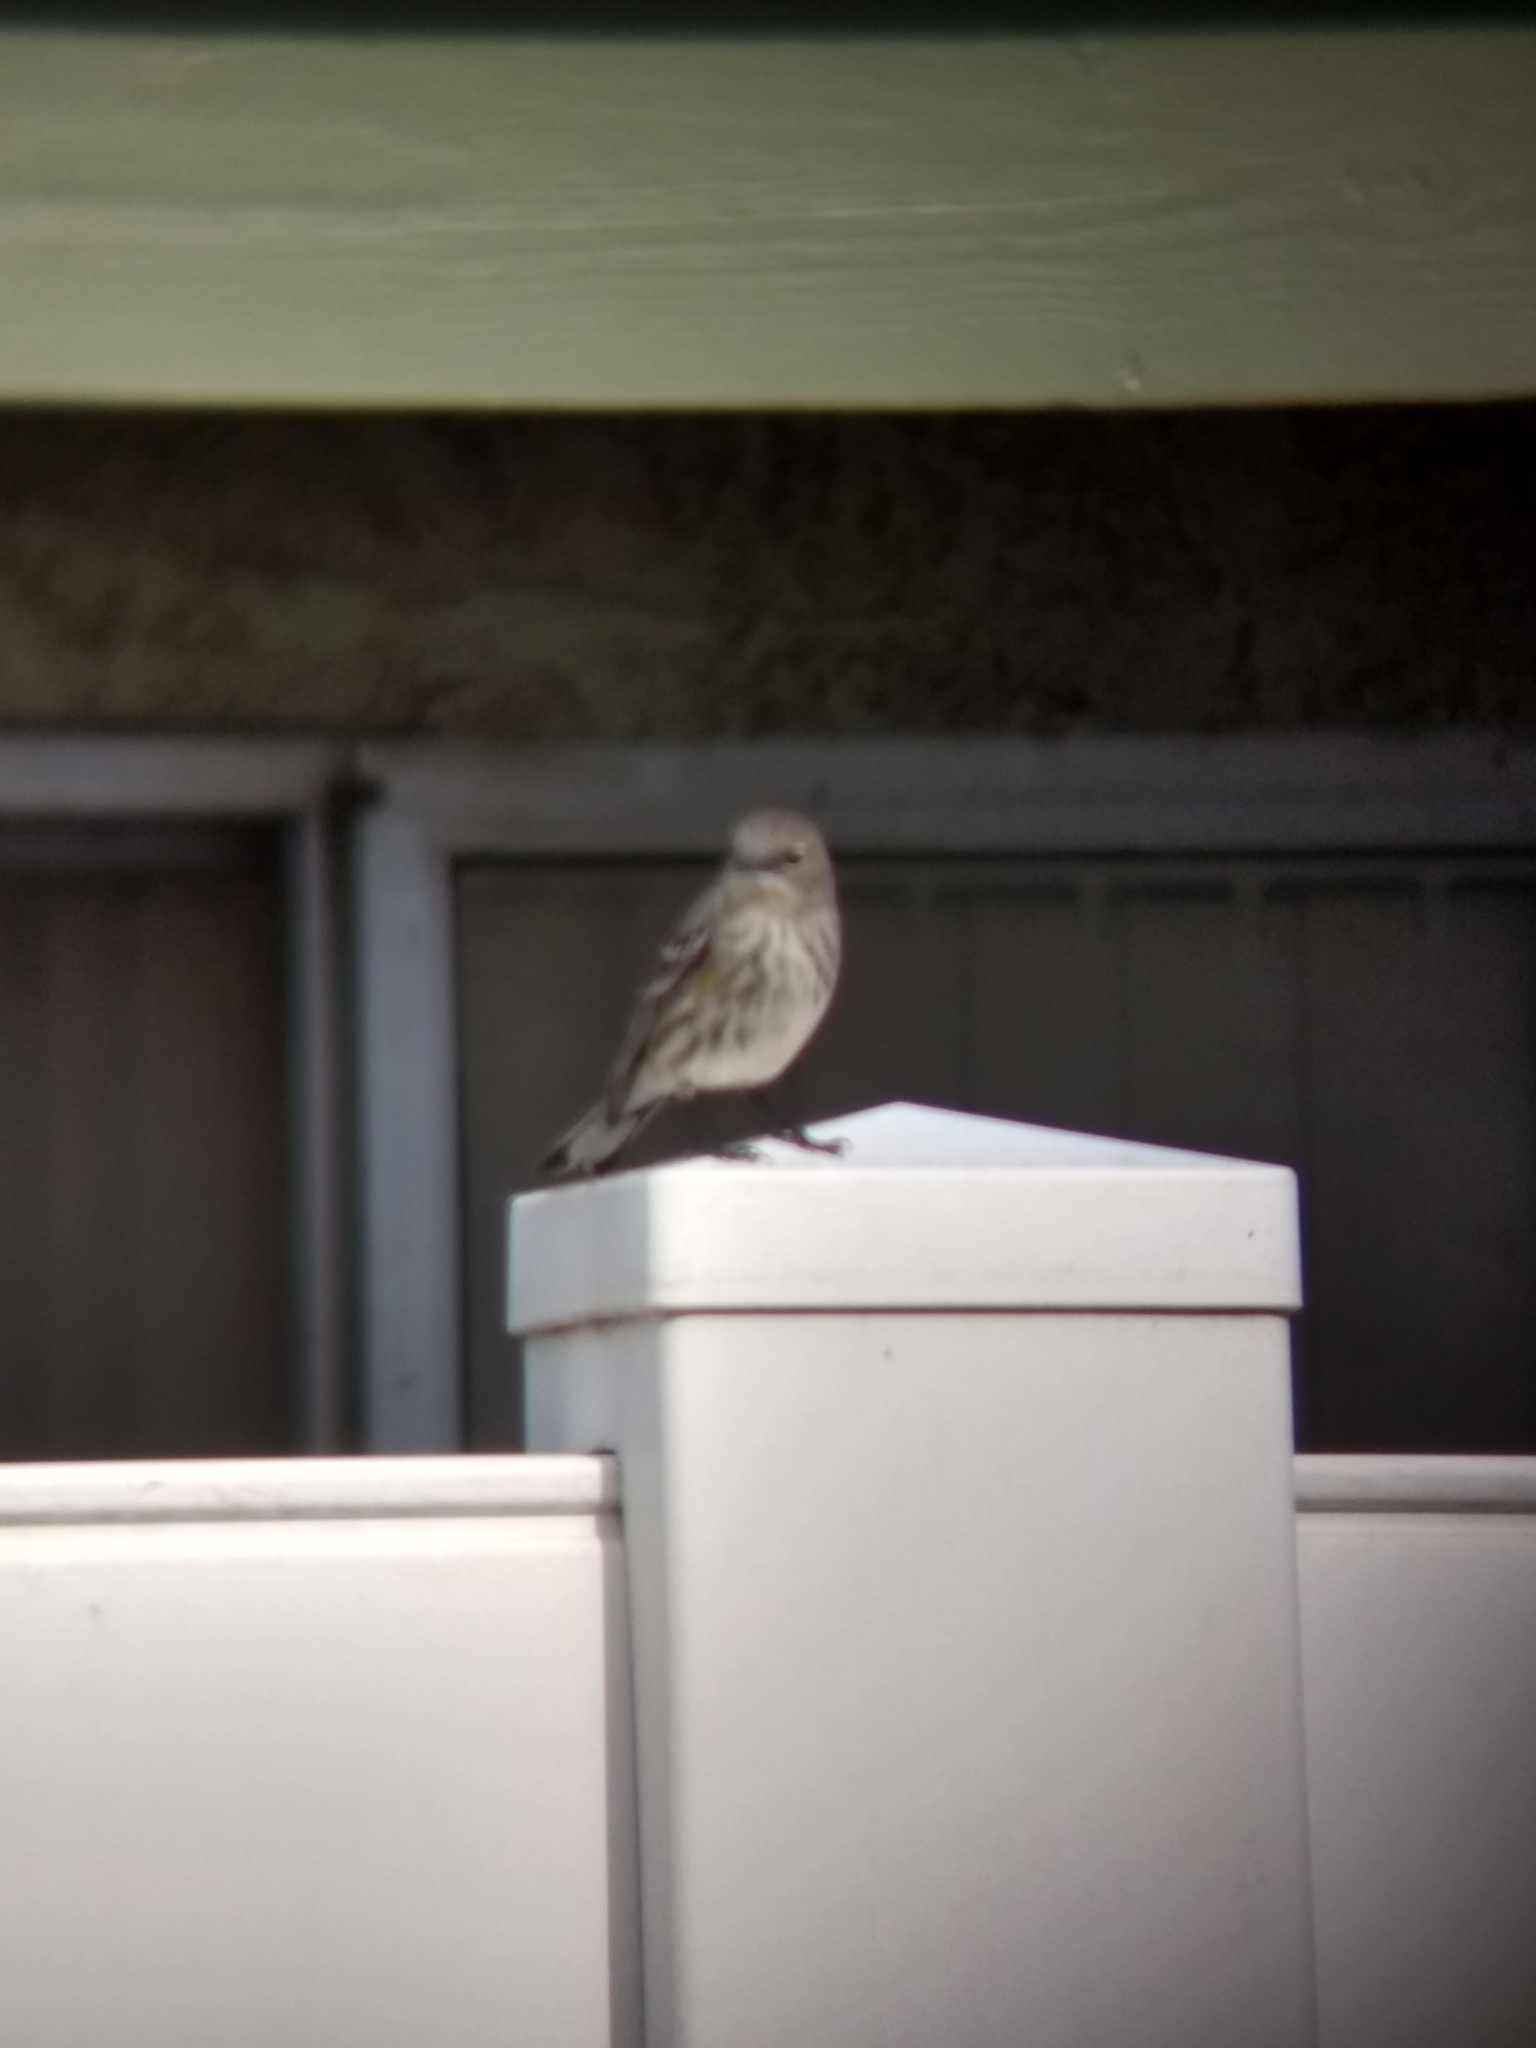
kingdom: Animalia
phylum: Chordata
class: Aves
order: Passeriformes
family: Parulidae
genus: Setophaga
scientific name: Setophaga coronata
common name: Myrtle warbler
